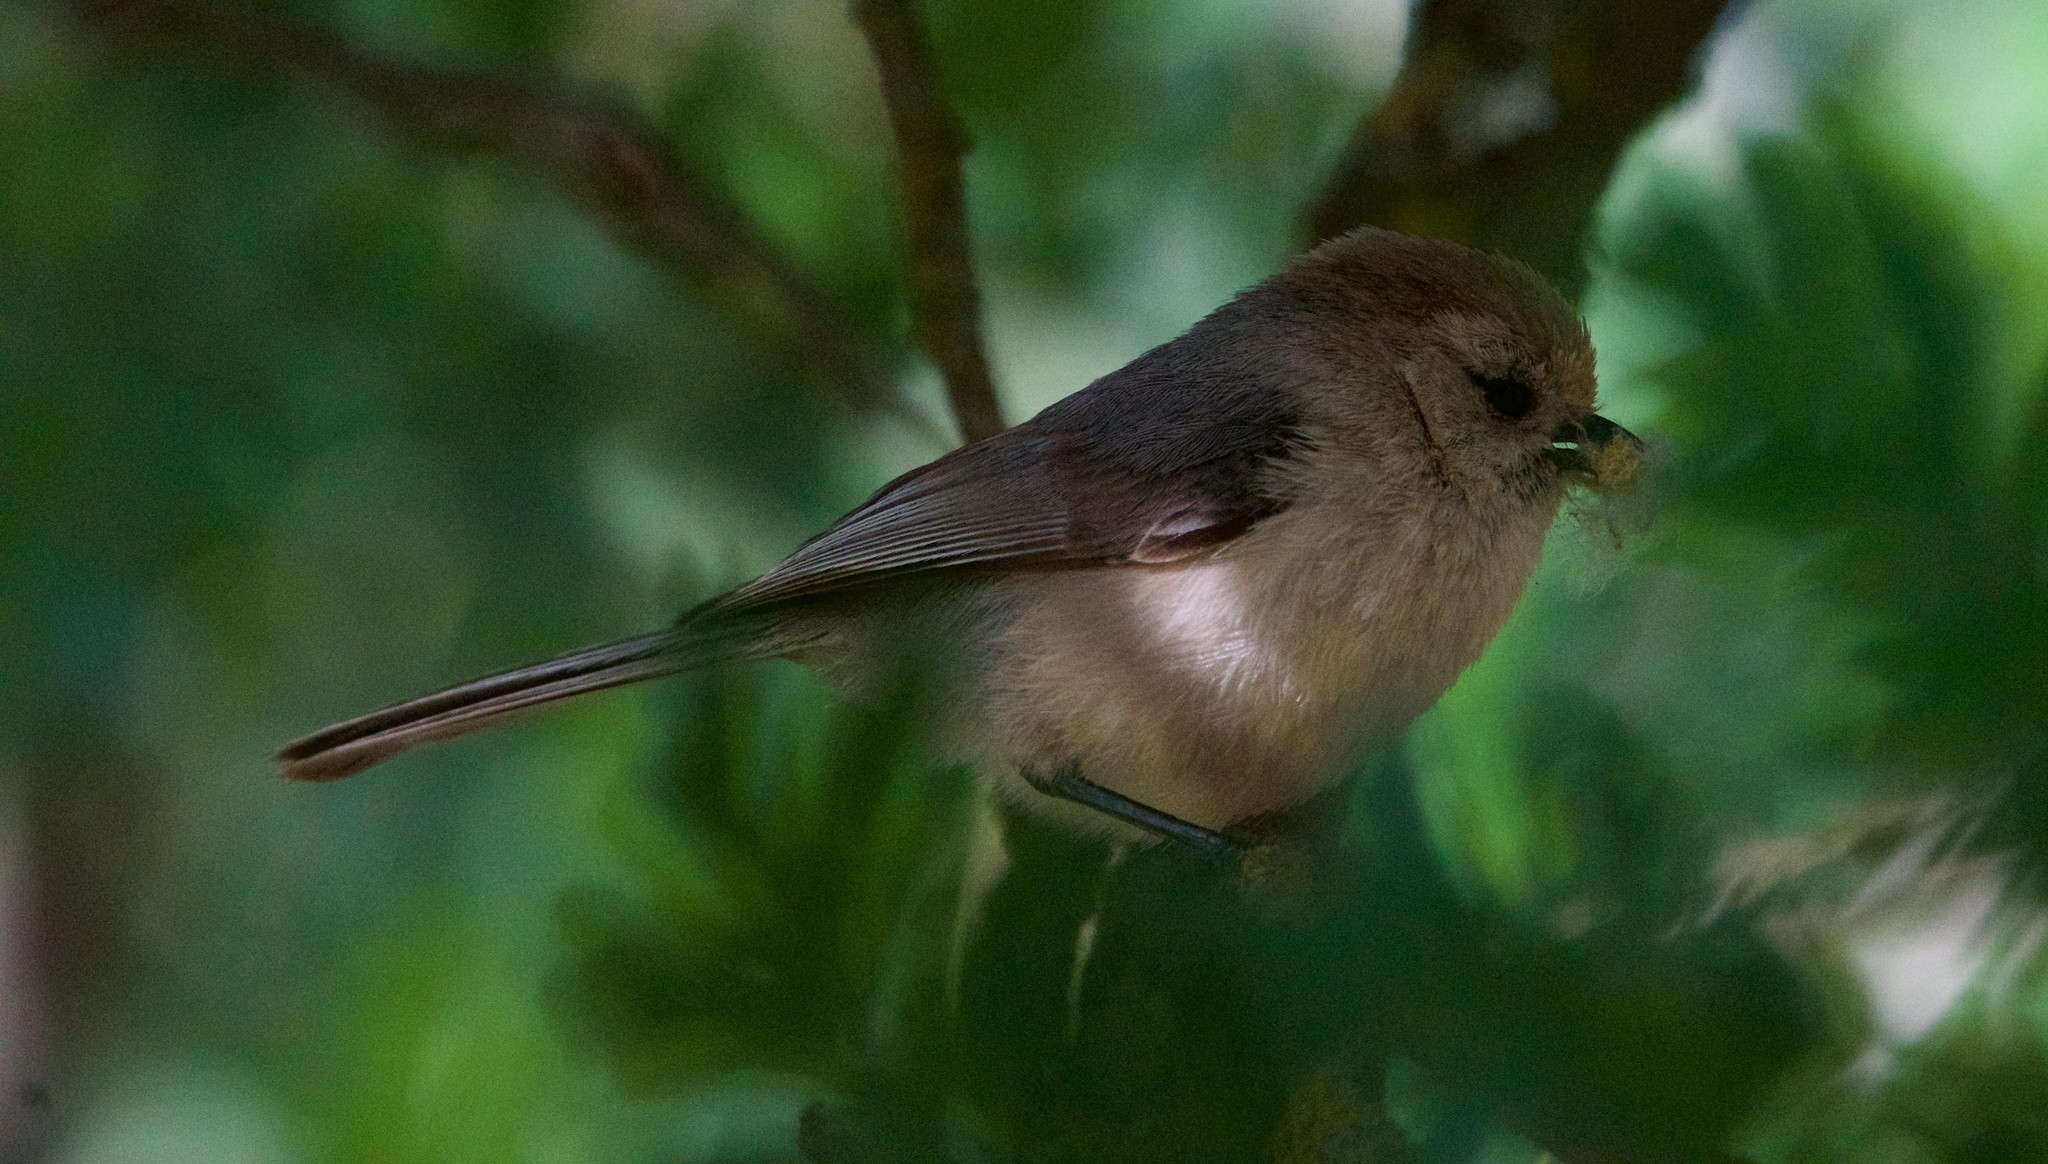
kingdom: Animalia
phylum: Chordata
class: Aves
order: Passeriformes
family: Aegithalidae
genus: Psaltriparus
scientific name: Psaltriparus minimus
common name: American bushtit
